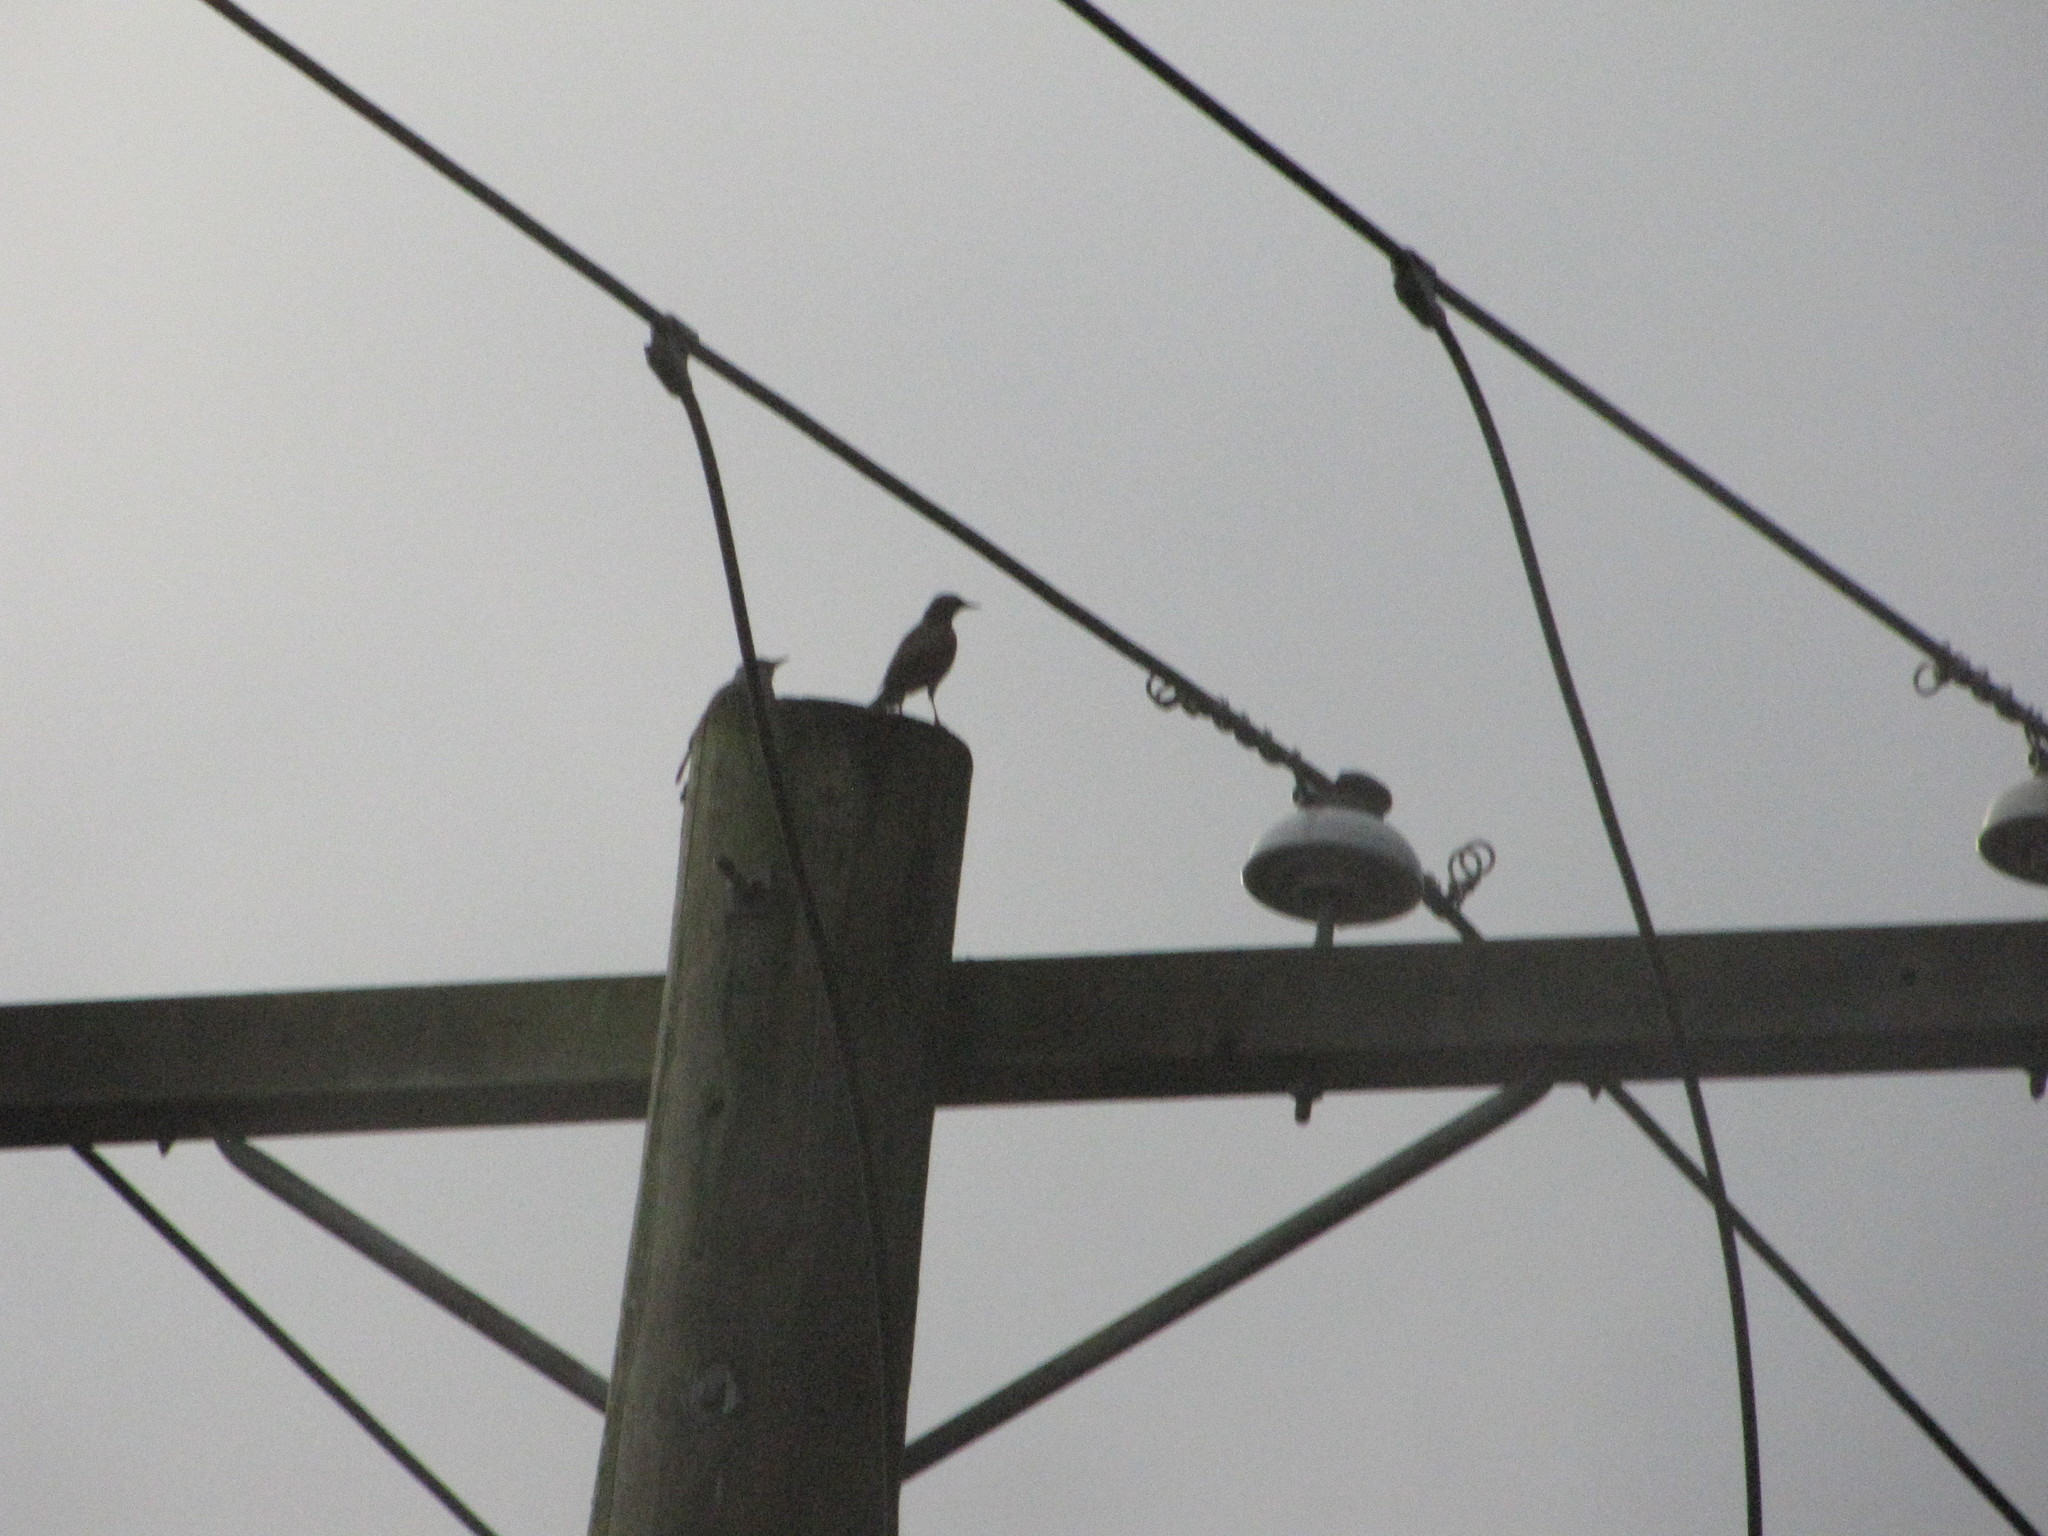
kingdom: Animalia
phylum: Chordata
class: Aves
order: Passeriformes
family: Sturnidae
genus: Sturnus
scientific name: Sturnus vulgaris
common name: Common starling
